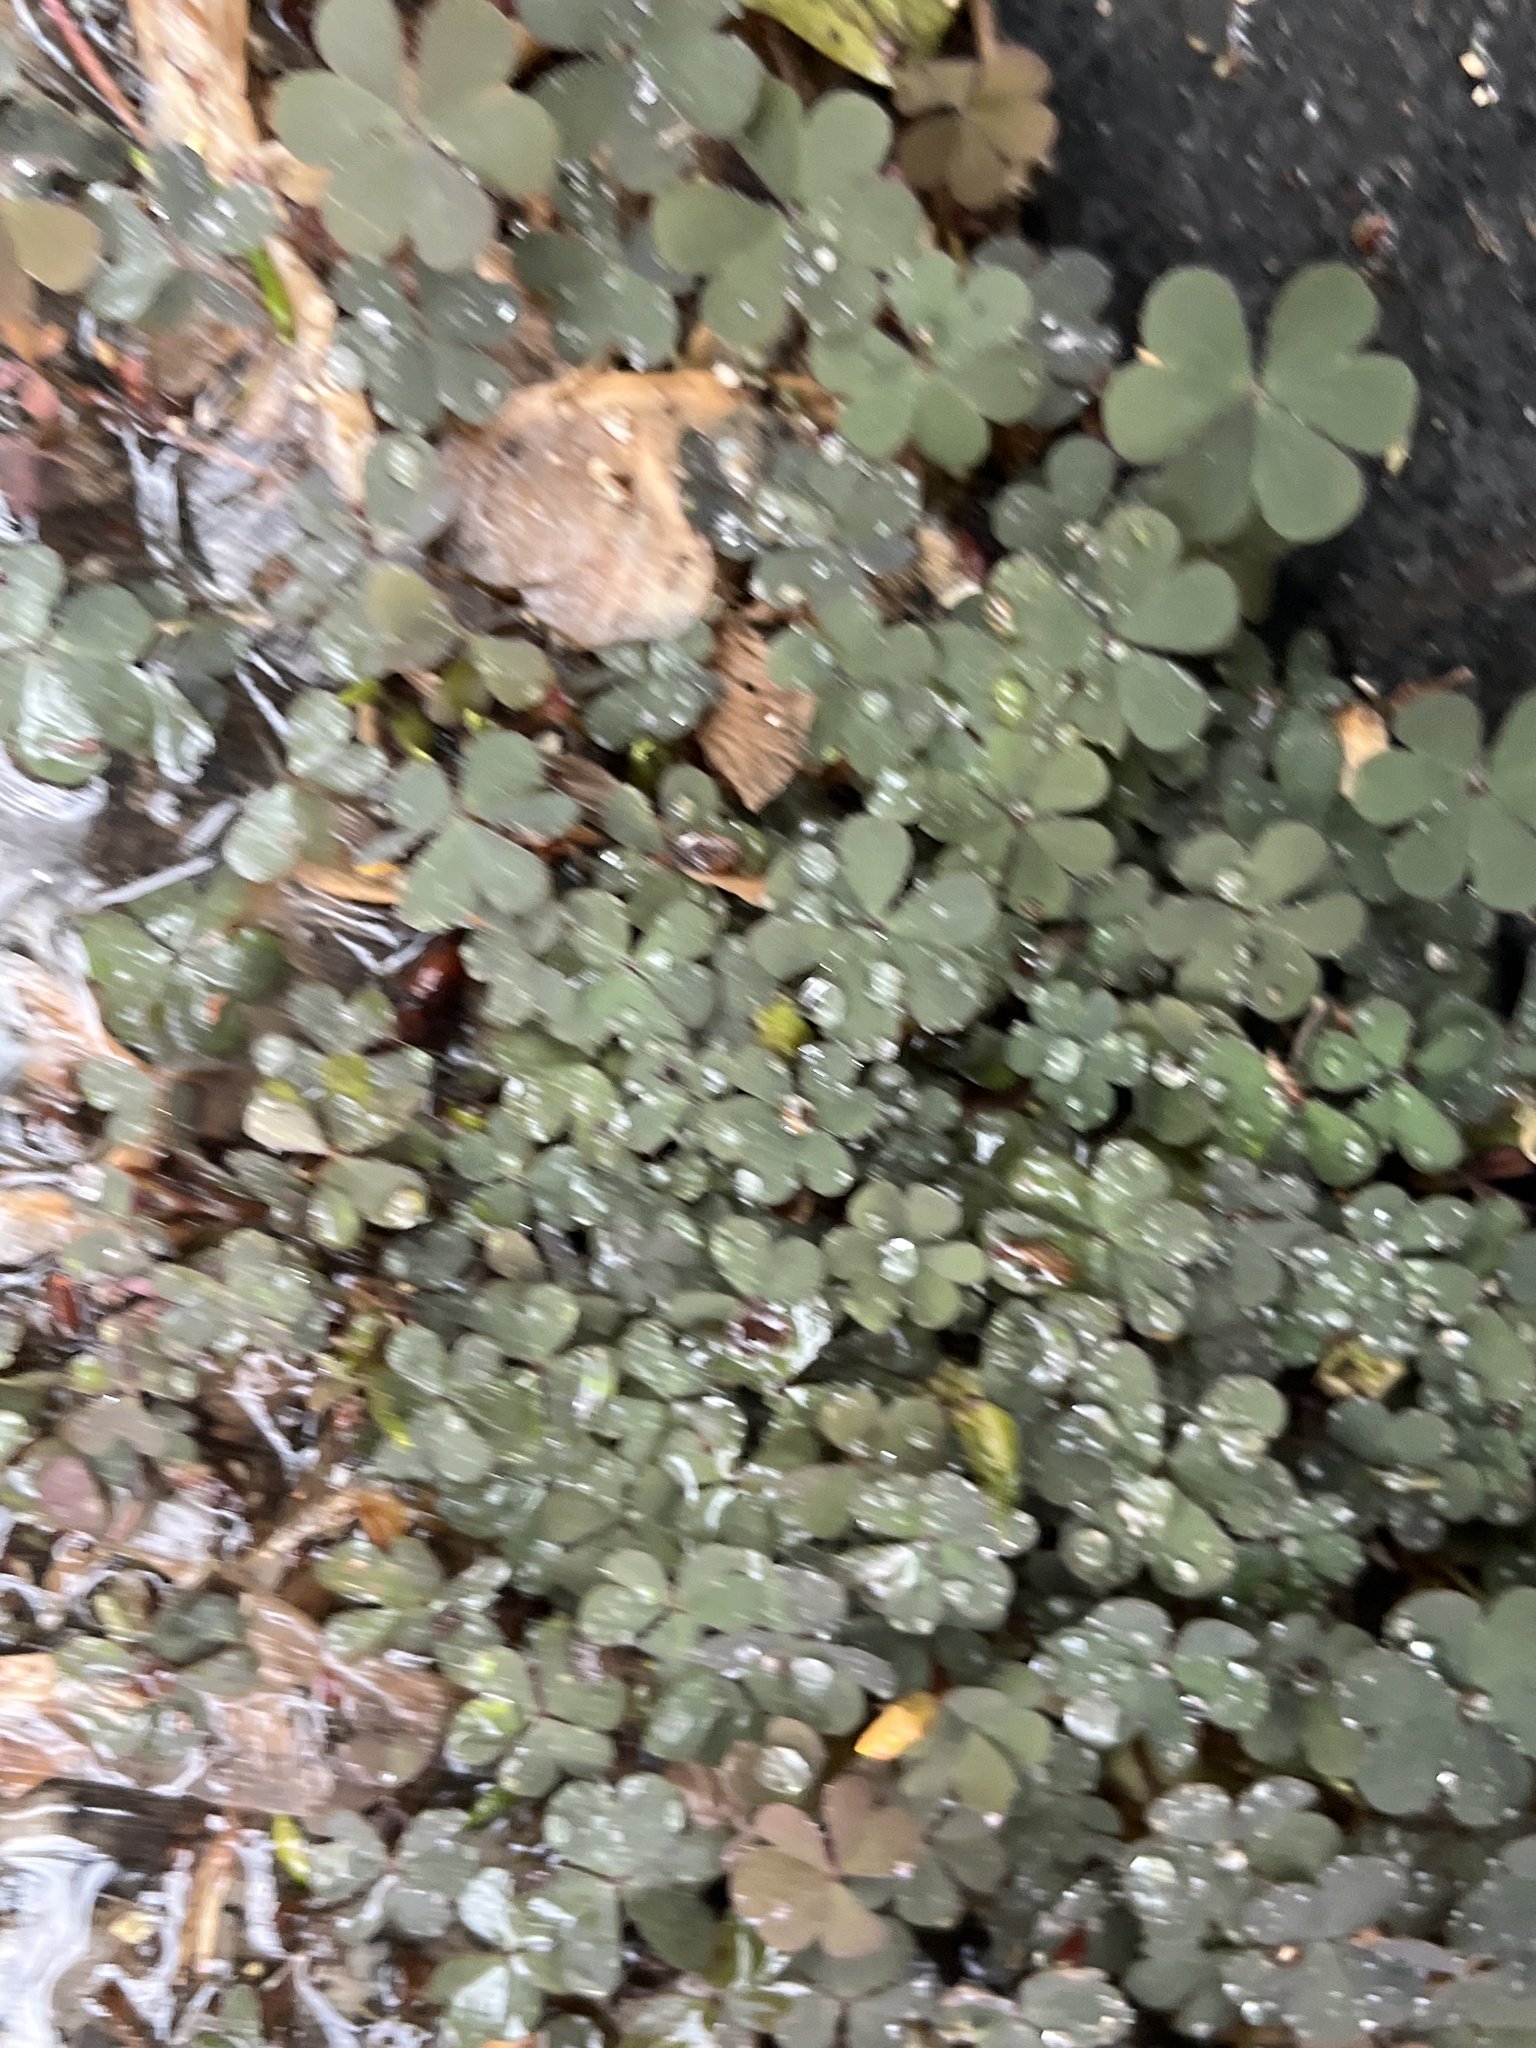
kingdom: Plantae
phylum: Tracheophyta
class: Magnoliopsida
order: Oxalidales
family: Oxalidaceae
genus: Oxalis
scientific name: Oxalis corniculata
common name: Procumbent yellow-sorrel
